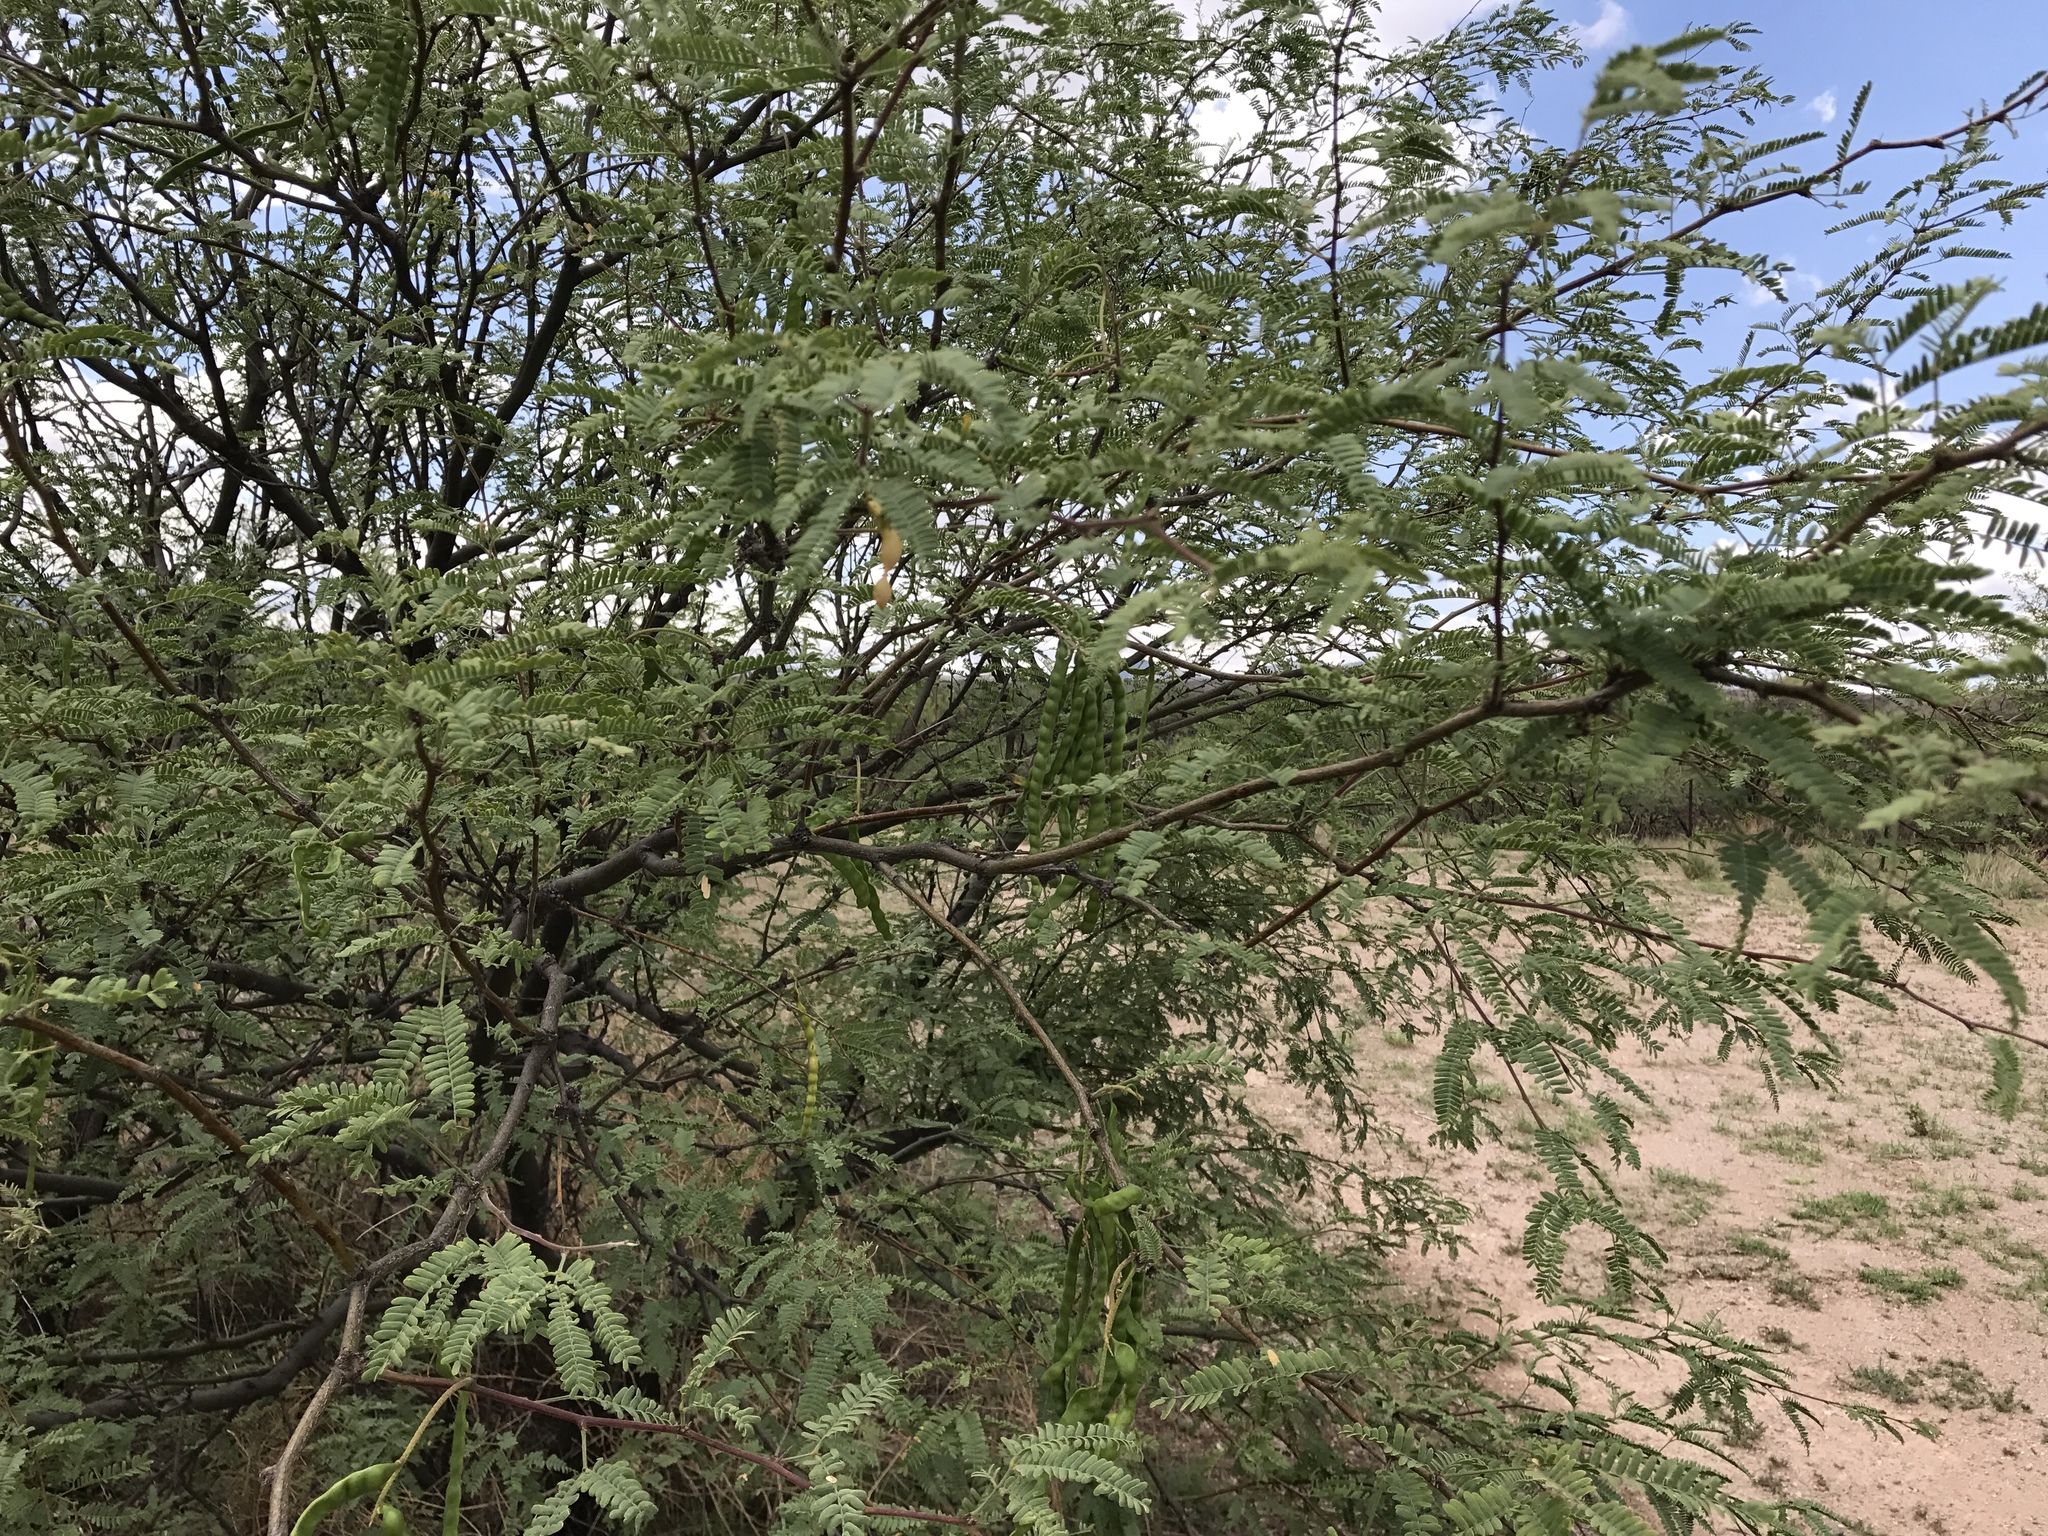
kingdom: Plantae
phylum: Tracheophyta
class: Magnoliopsida
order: Fabales
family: Fabaceae
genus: Prosopis
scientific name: Prosopis velutina
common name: Velvet mesquite
